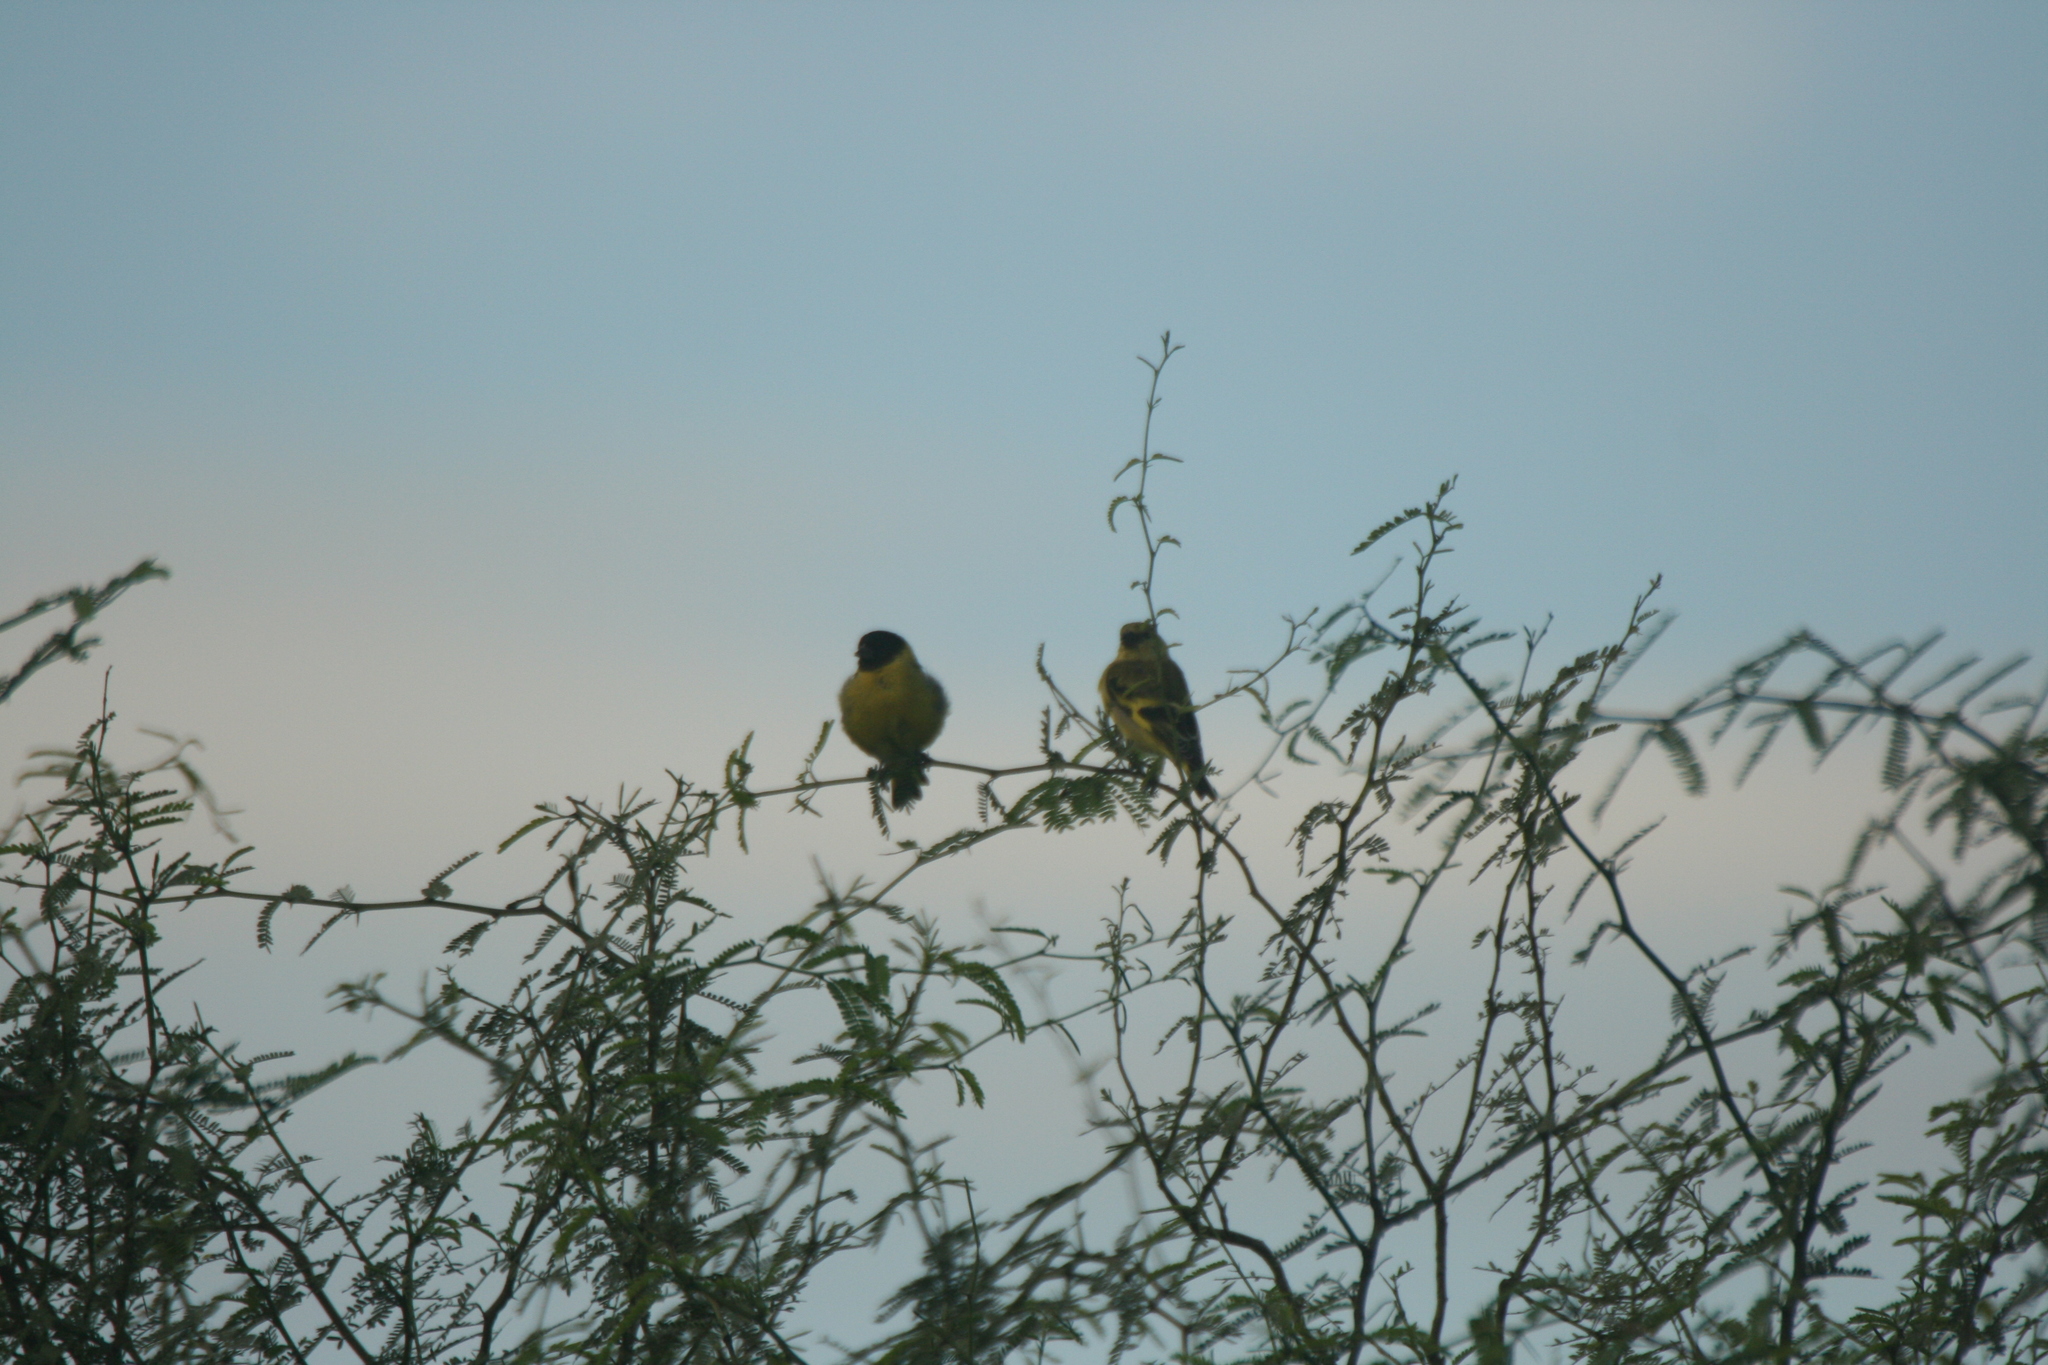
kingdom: Animalia
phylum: Chordata
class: Aves
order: Passeriformes
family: Fringillidae
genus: Spinus
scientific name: Spinus magellanicus
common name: Hooded siskin
